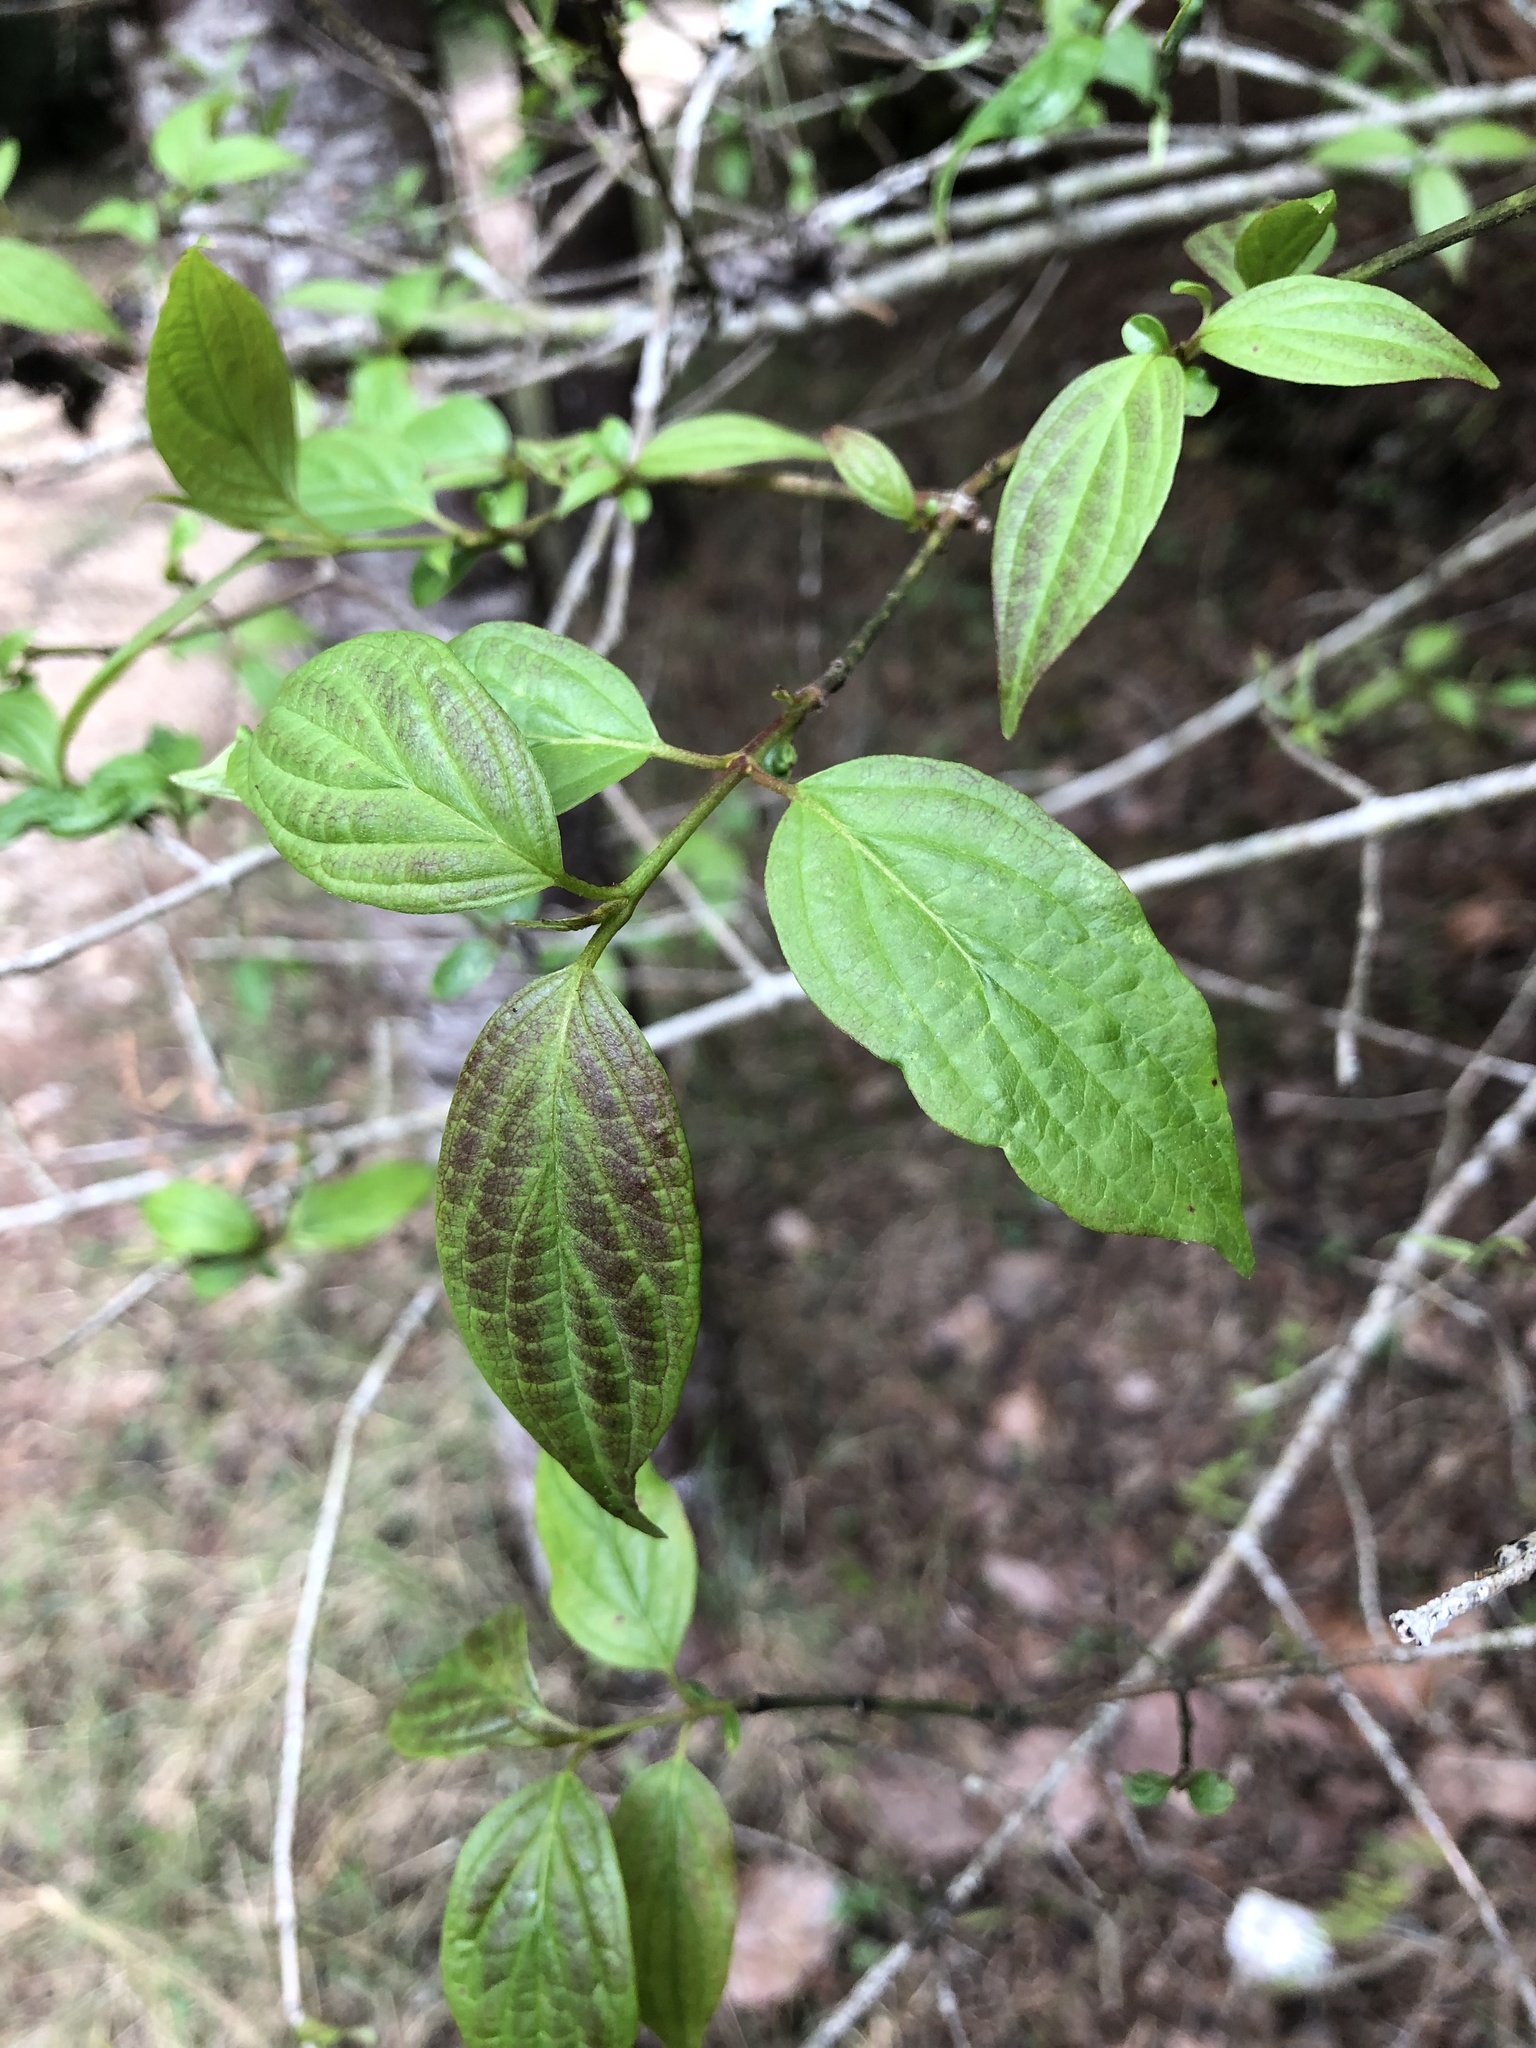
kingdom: Plantae
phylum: Tracheophyta
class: Magnoliopsida
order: Cornales
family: Cornaceae
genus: Cornus
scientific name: Cornus excelsa
